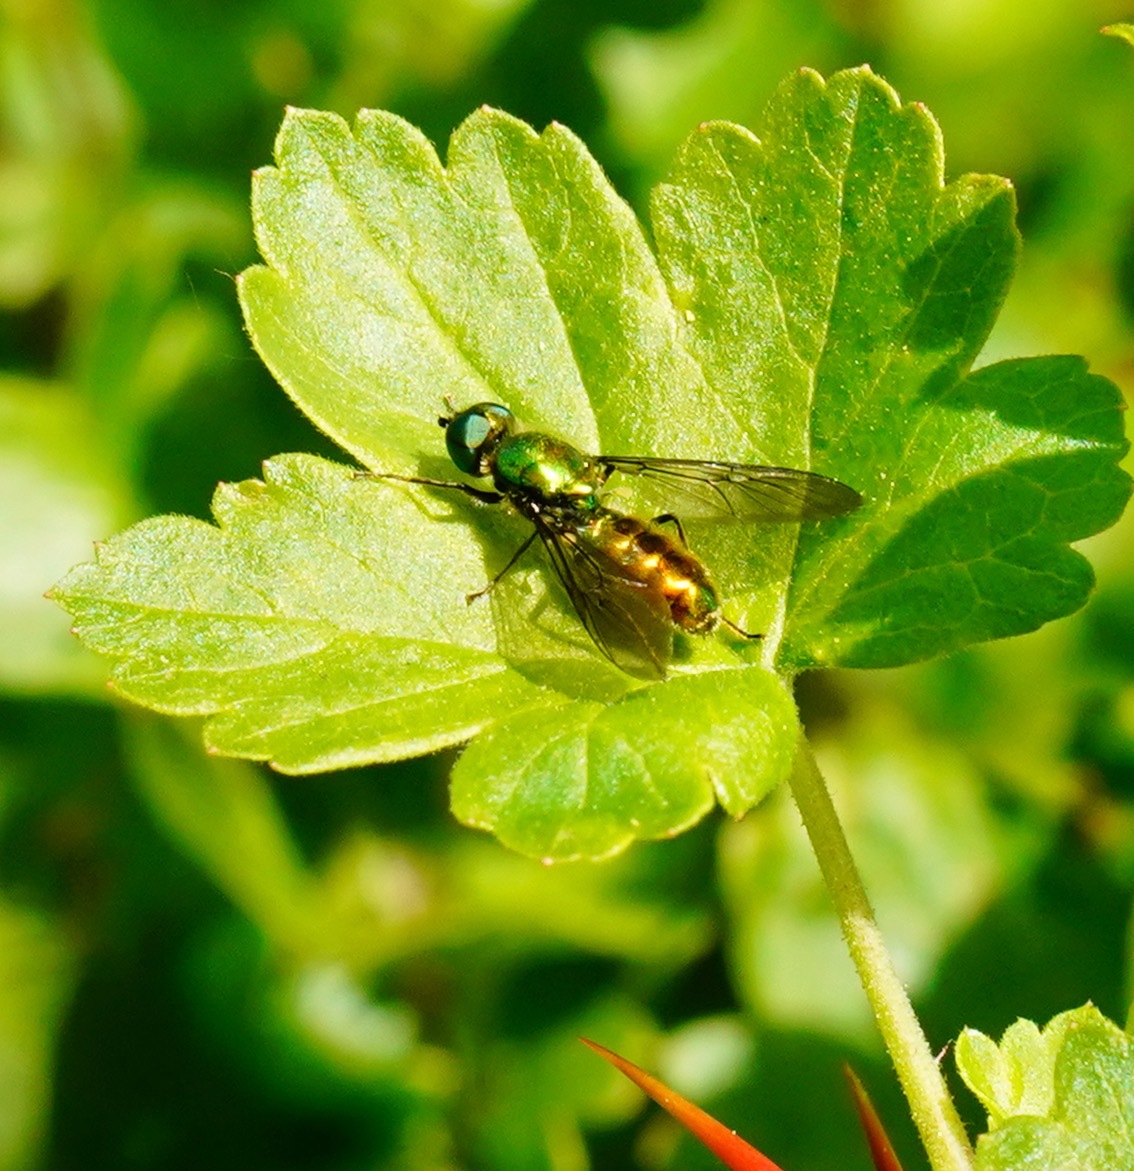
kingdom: Animalia
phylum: Arthropoda
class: Insecta
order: Diptera
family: Stratiomyidae
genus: Sargus
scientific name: Sargus viridis
